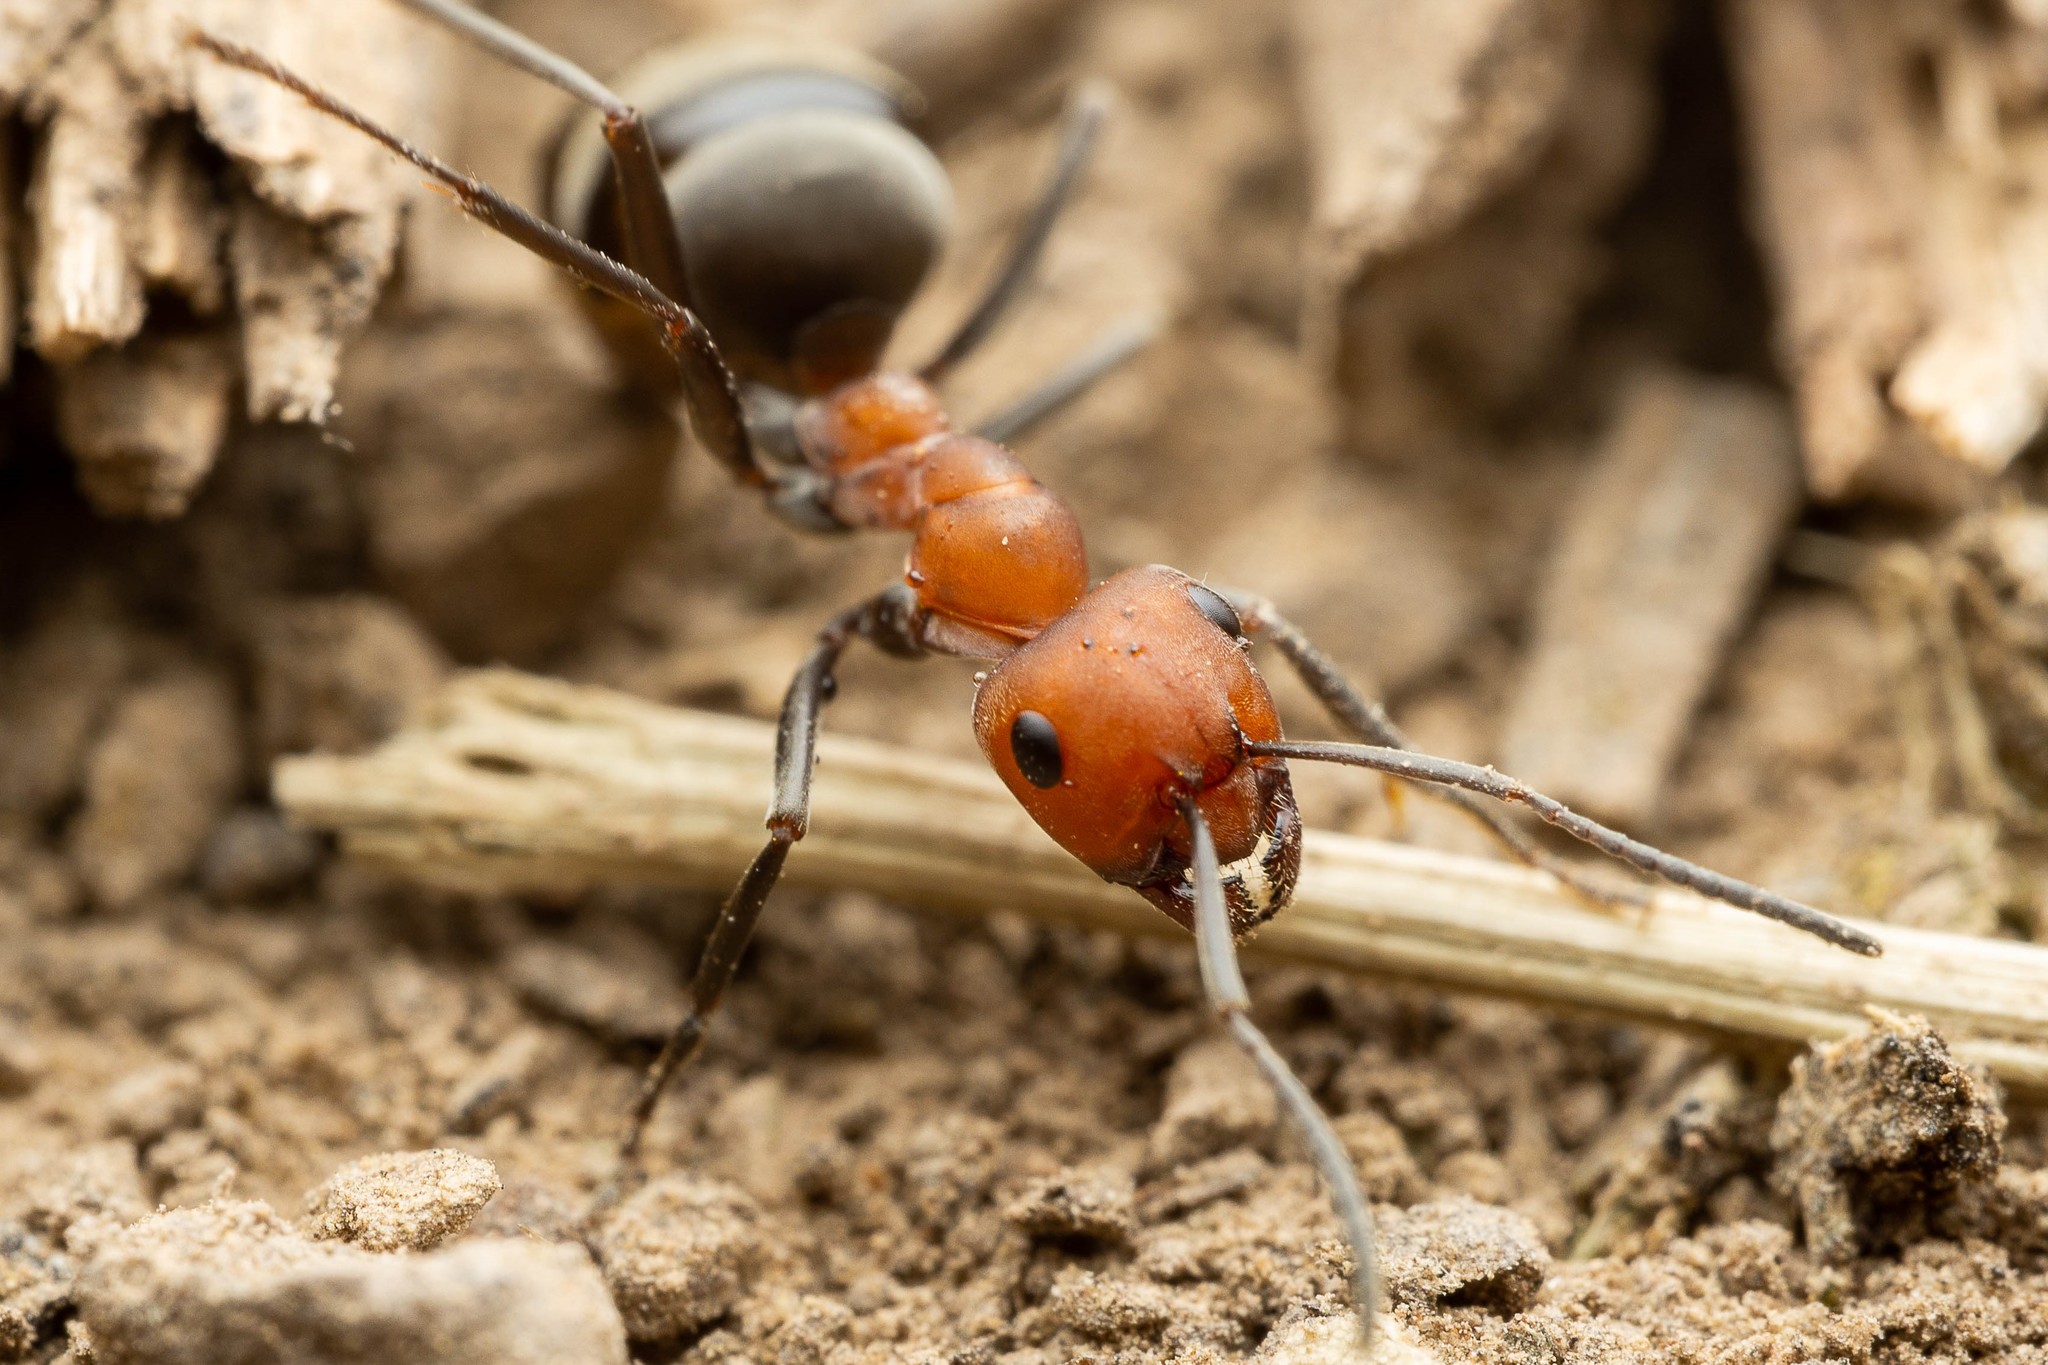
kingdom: Animalia
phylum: Arthropoda
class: Insecta
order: Hymenoptera
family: Formicidae
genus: Formica
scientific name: Formica propinqua
